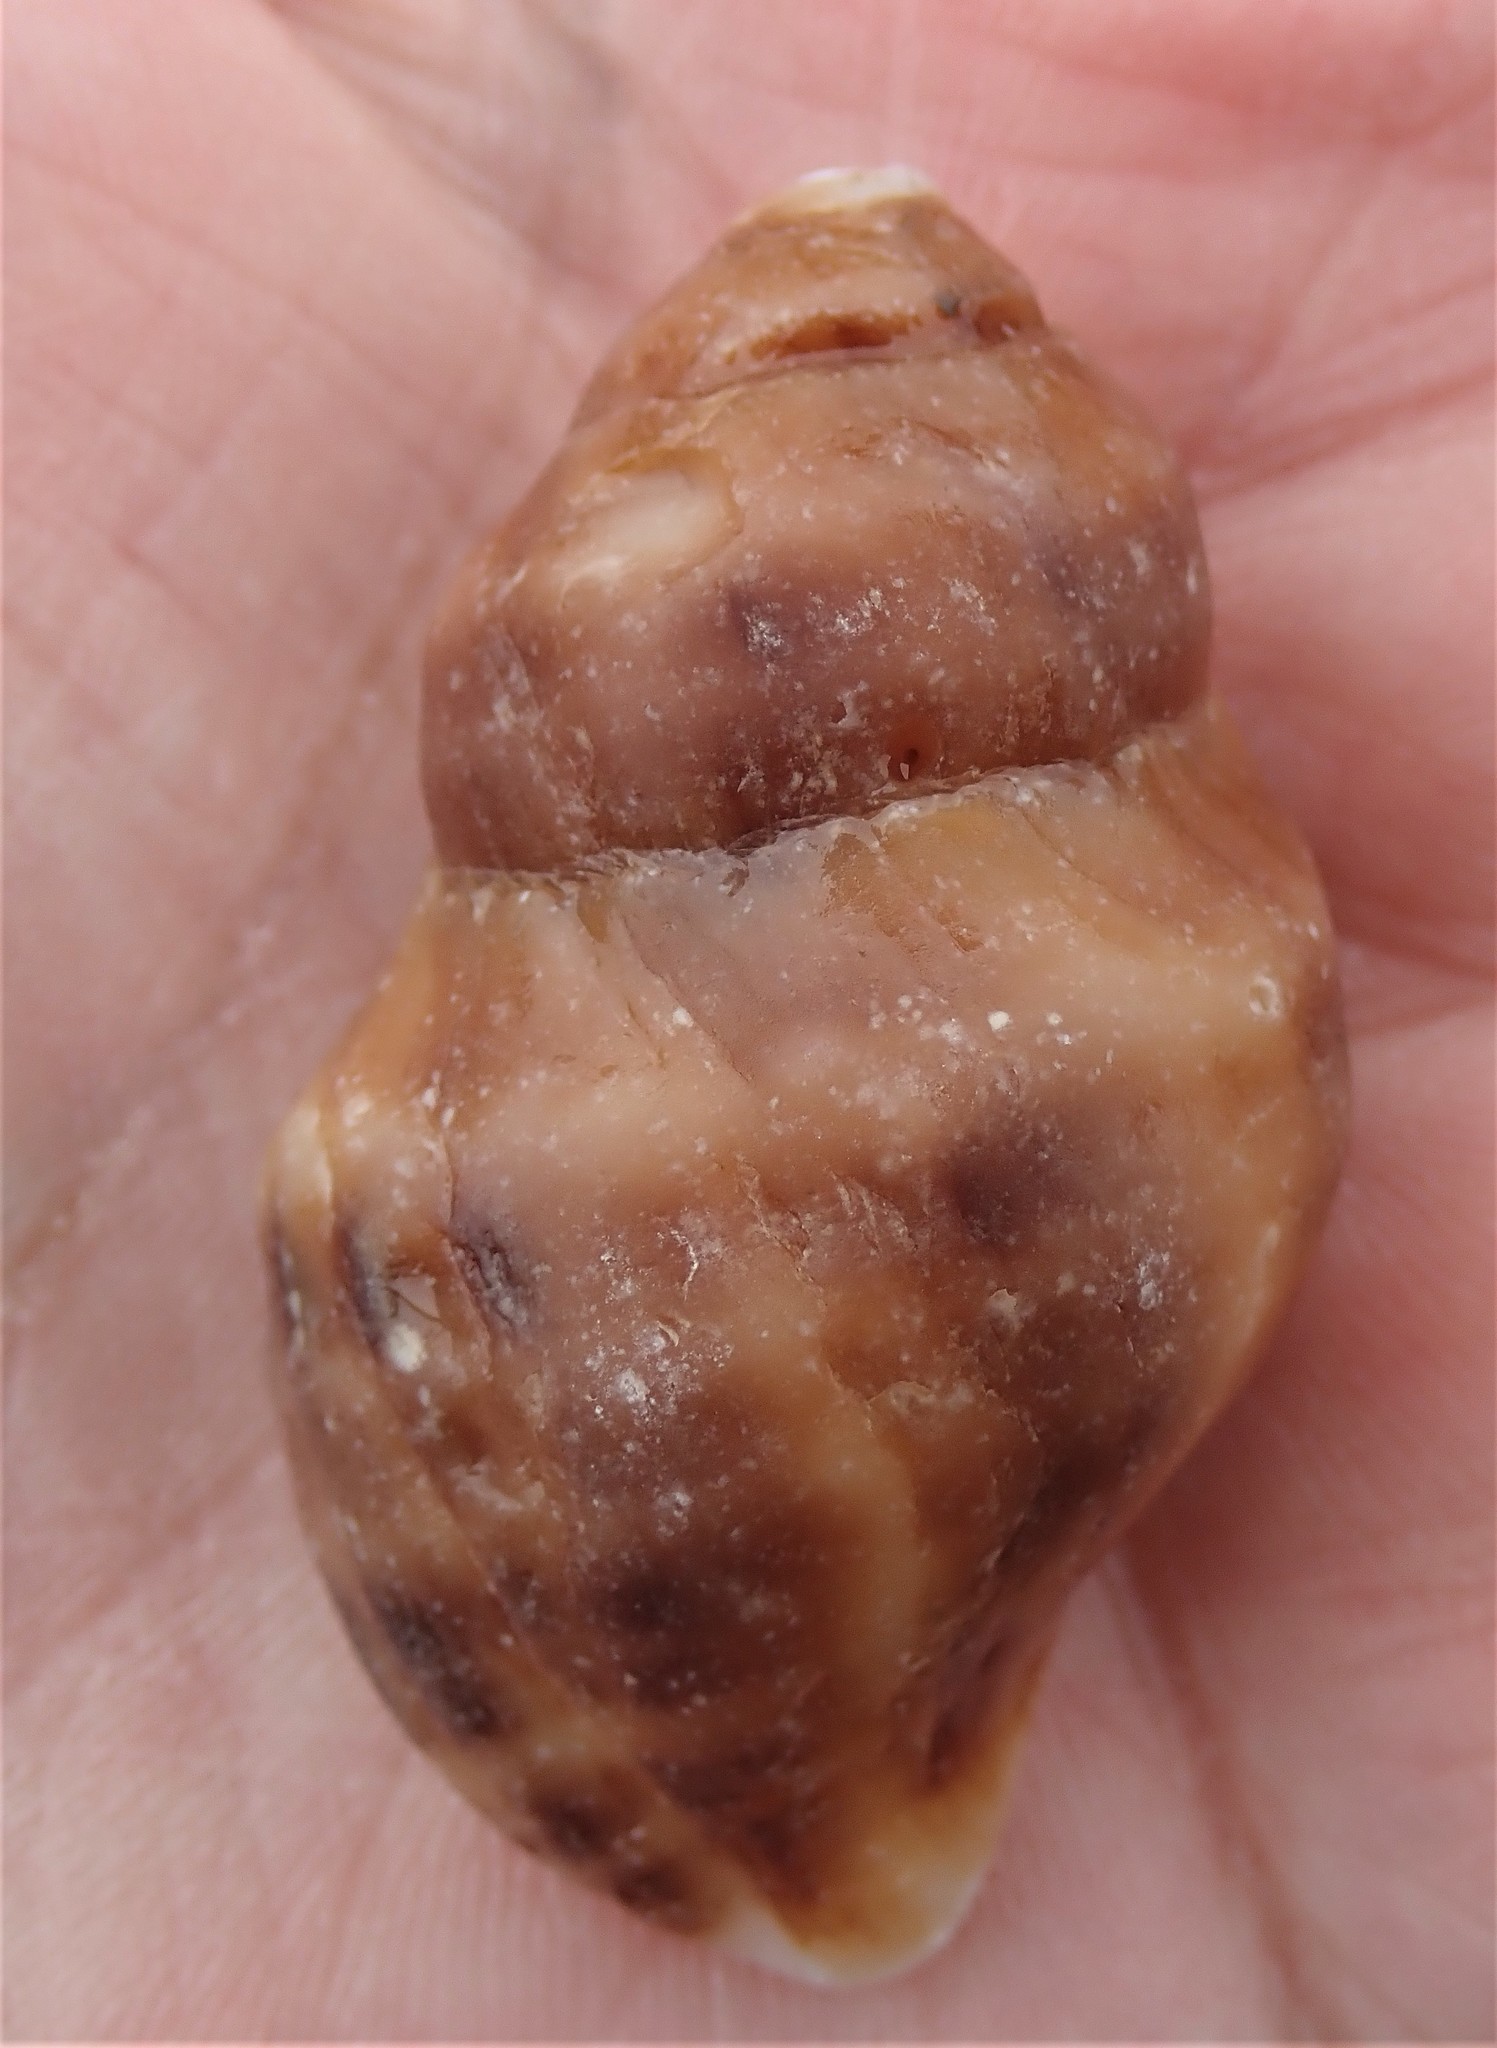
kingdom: Animalia
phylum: Mollusca
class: Gastropoda
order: Neogastropoda
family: Muricidae
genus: Nucella
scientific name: Nucella lamellosa
